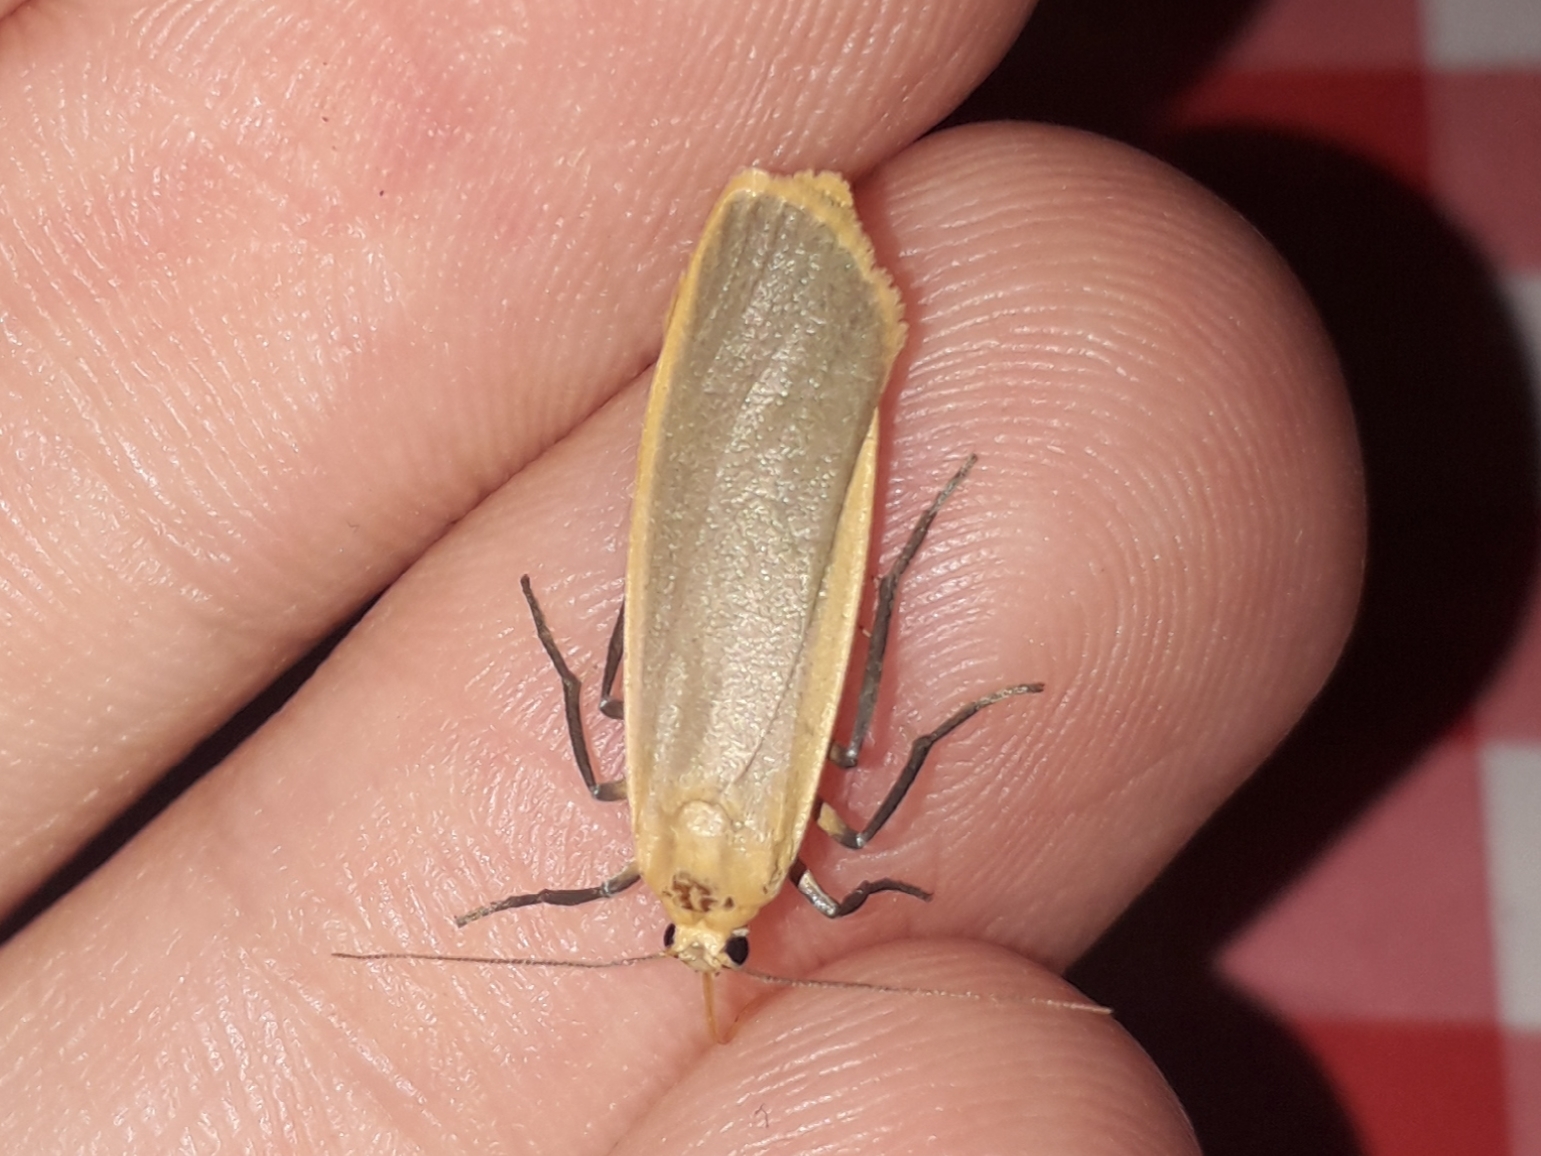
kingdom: Animalia
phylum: Arthropoda
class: Insecta
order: Lepidoptera
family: Erebidae
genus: Katha
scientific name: Katha depressa
